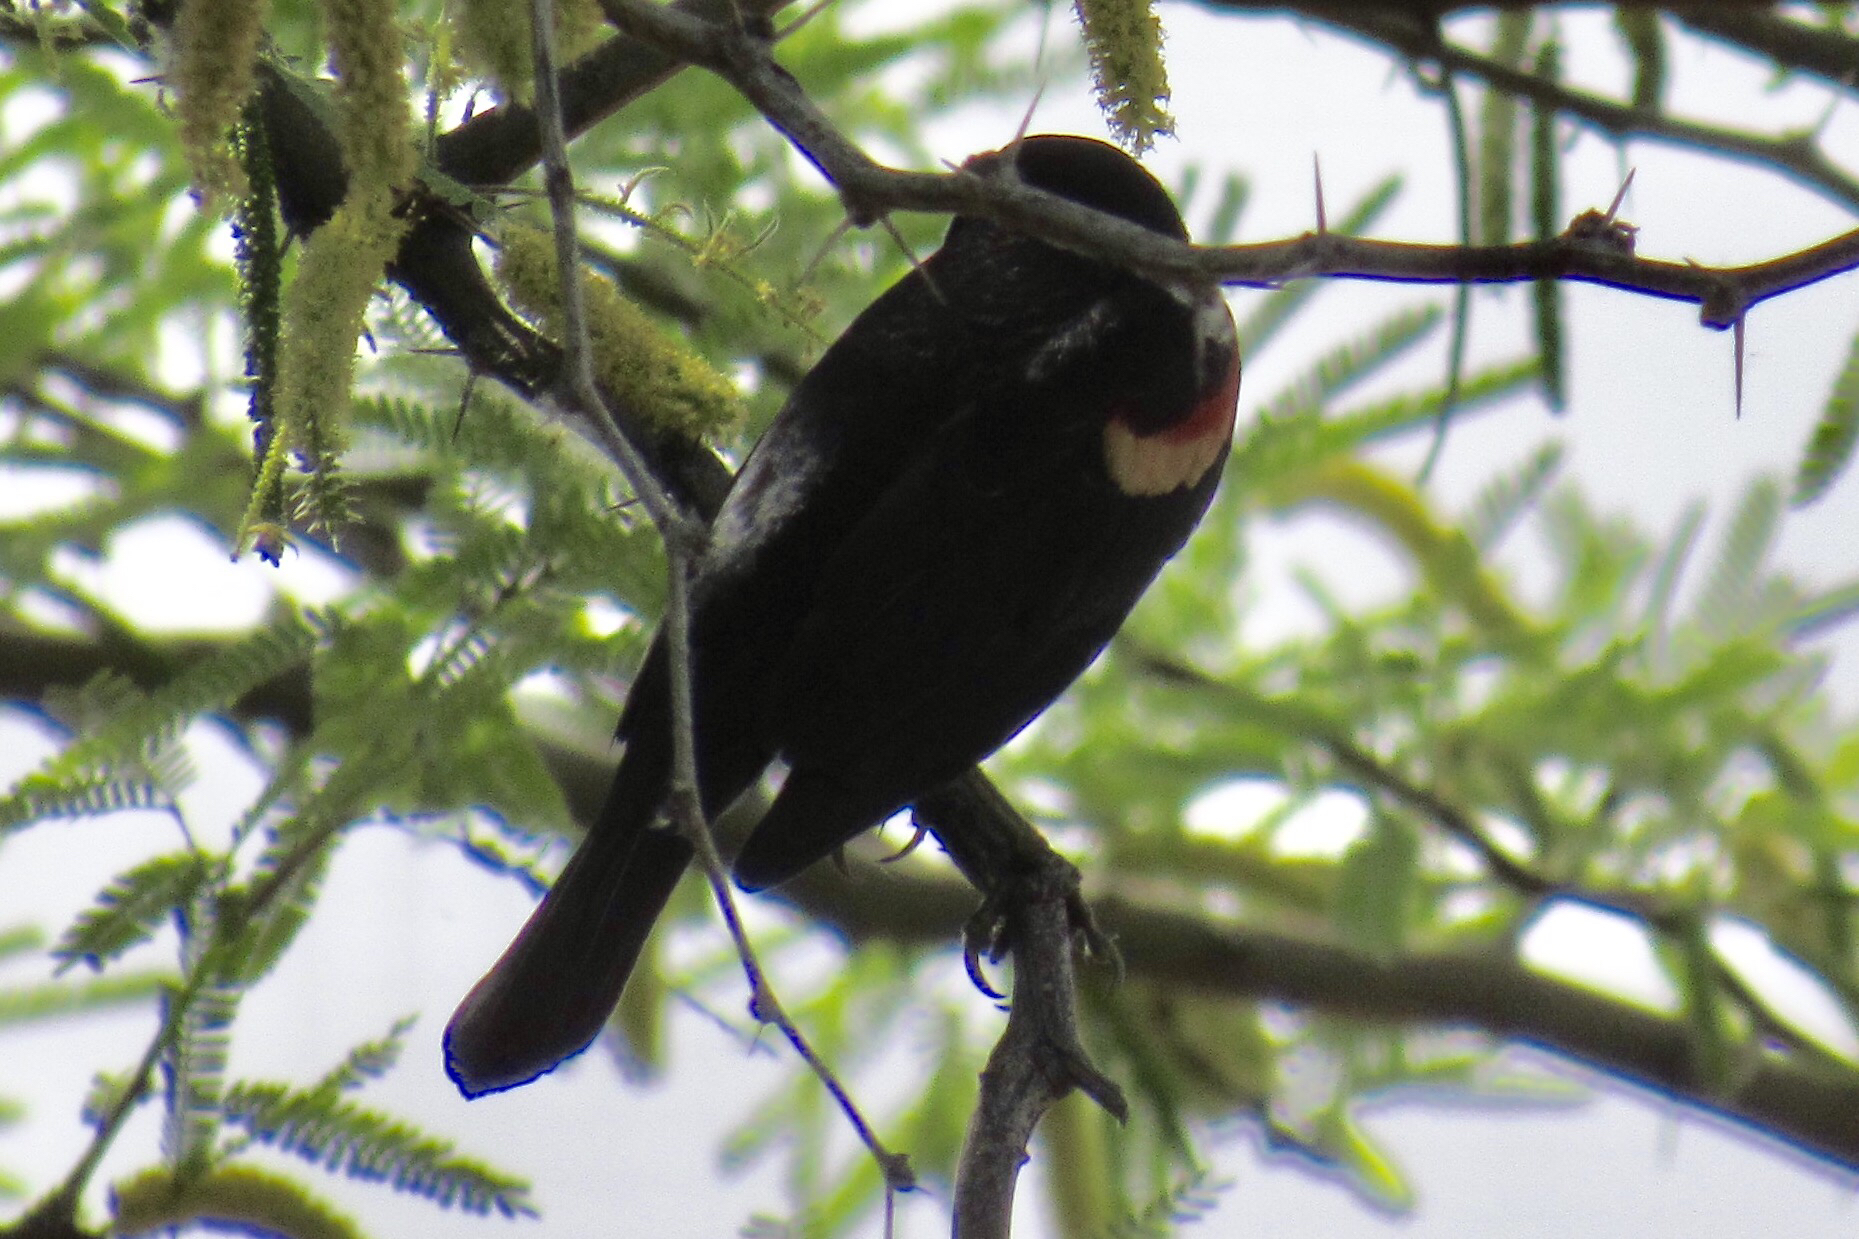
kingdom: Animalia
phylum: Chordata
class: Aves
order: Passeriformes
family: Icteridae
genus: Agelaius
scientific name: Agelaius phoeniceus
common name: Red-winged blackbird
